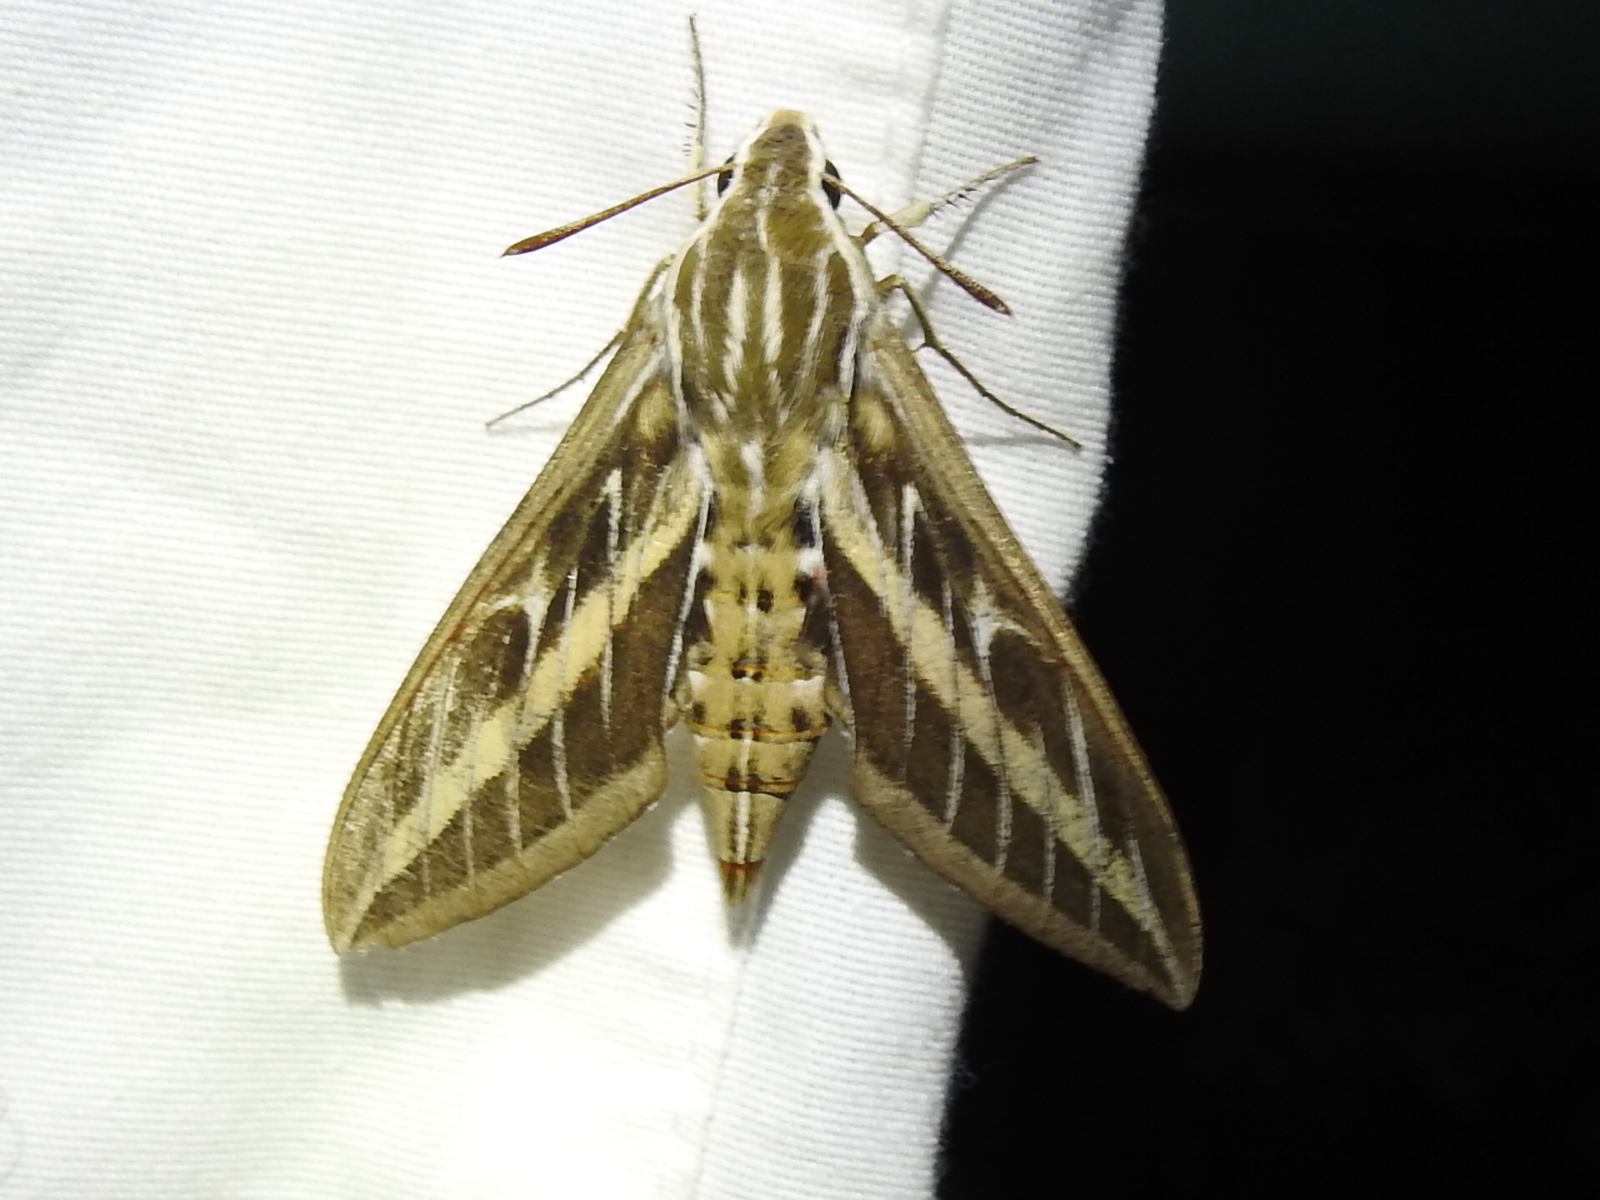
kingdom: Animalia
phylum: Arthropoda
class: Insecta
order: Lepidoptera
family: Sphingidae
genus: Hyles
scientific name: Hyles lineata
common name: White-lined sphinx
